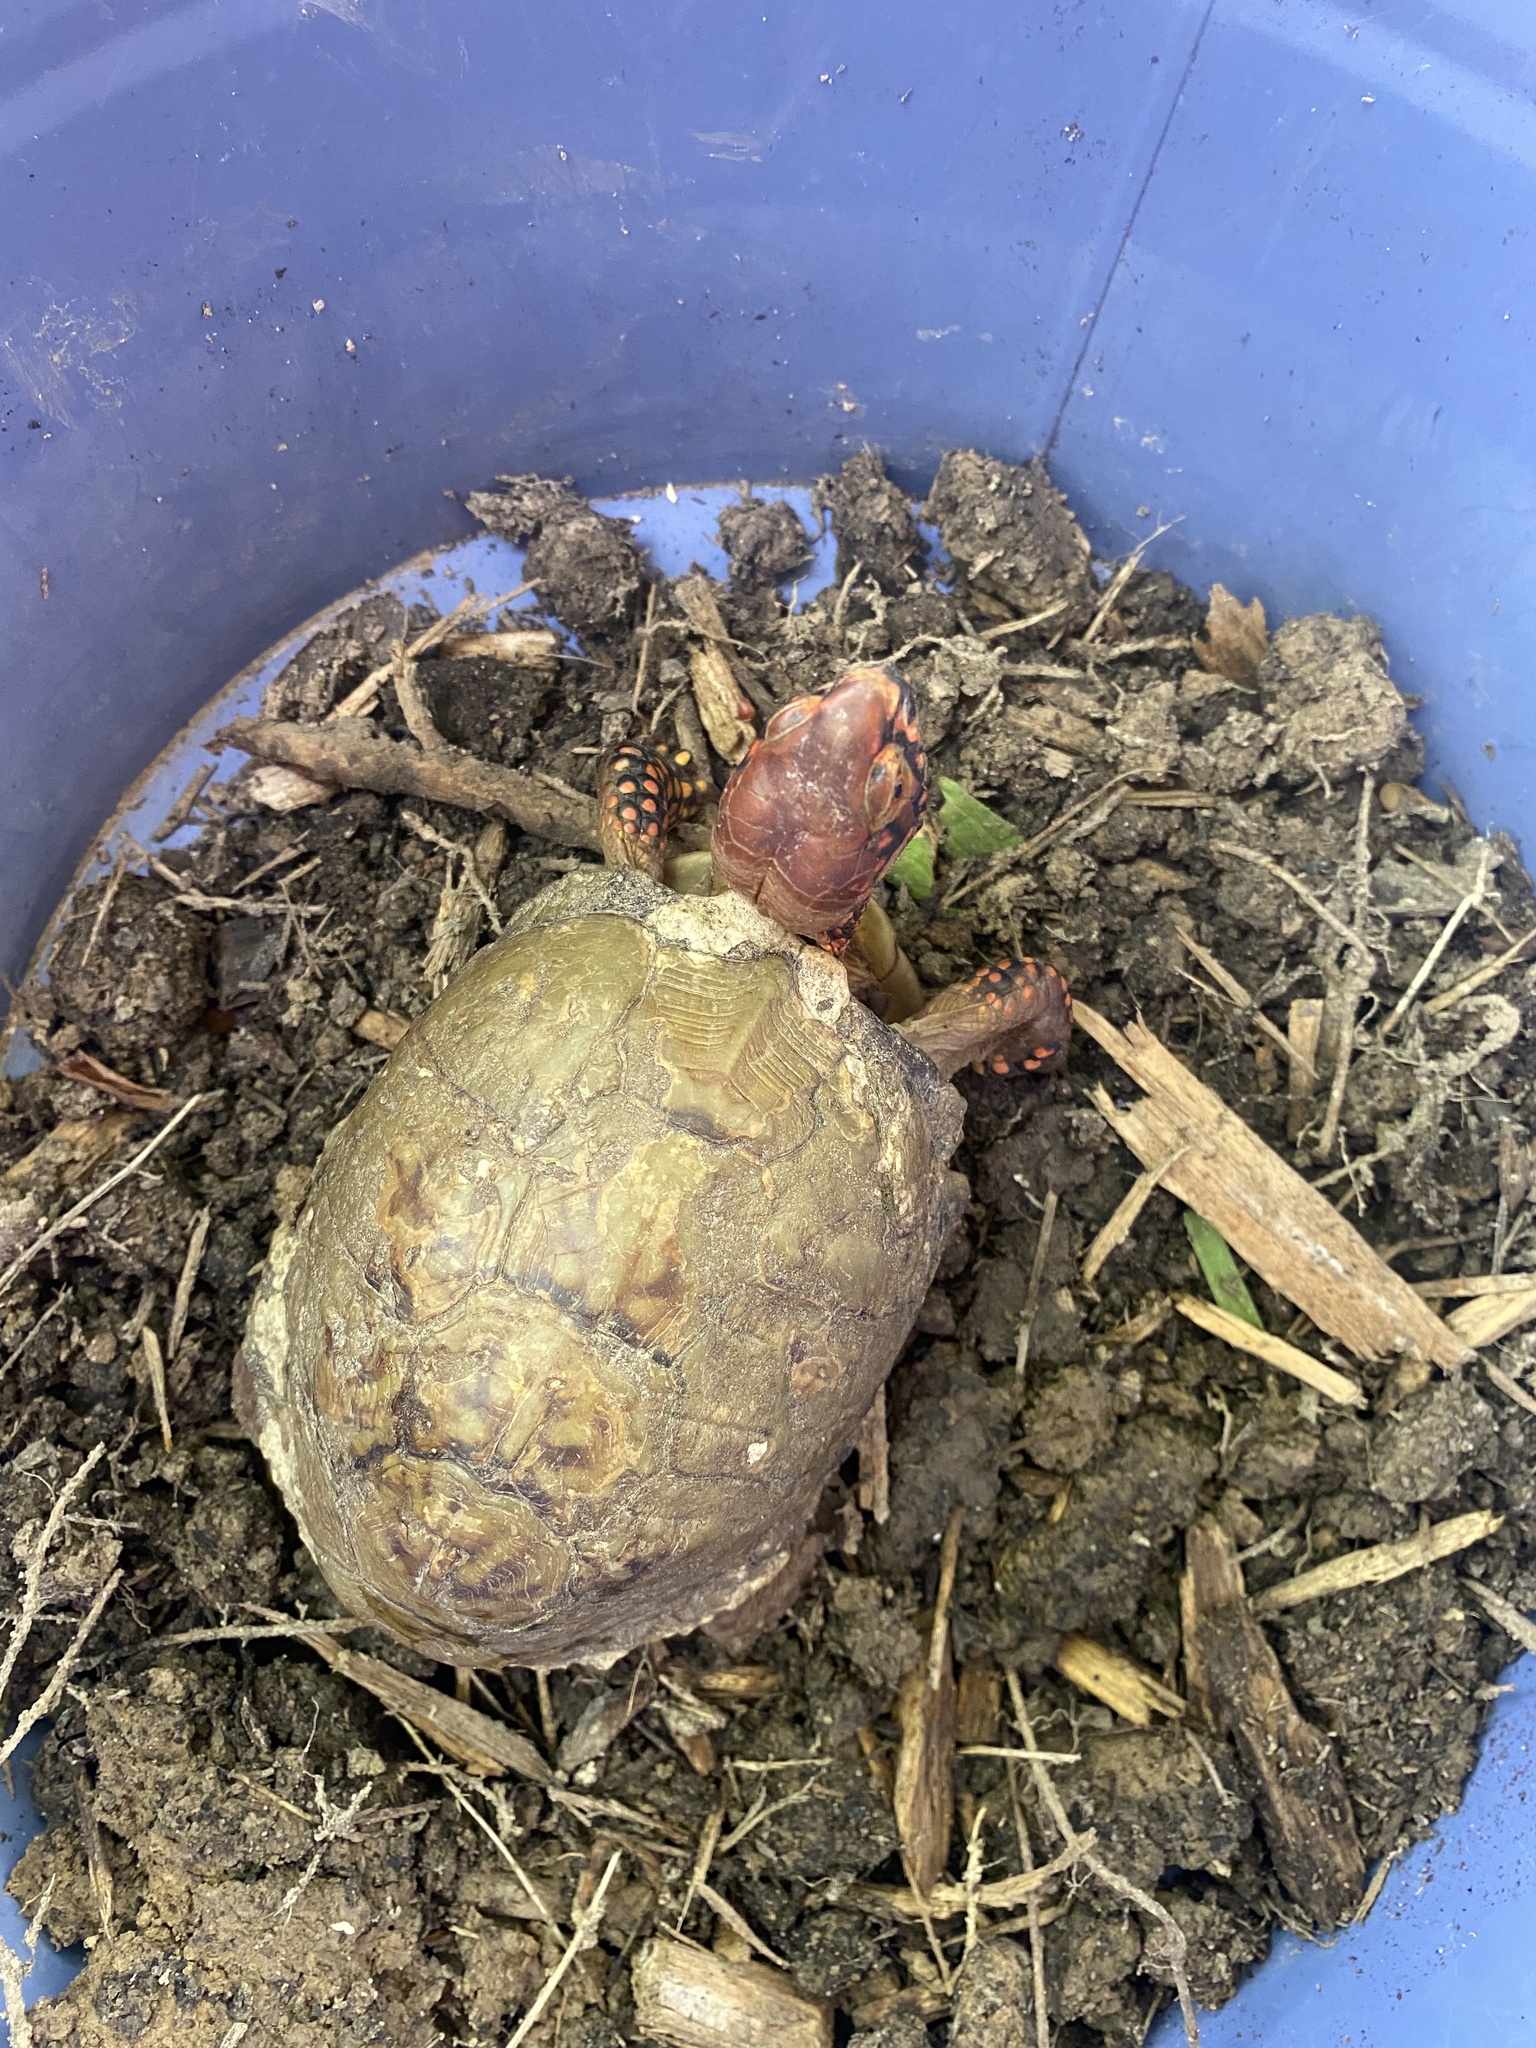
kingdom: Animalia
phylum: Chordata
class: Testudines
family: Emydidae
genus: Terrapene
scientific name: Terrapene carolina
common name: Common box turtle
